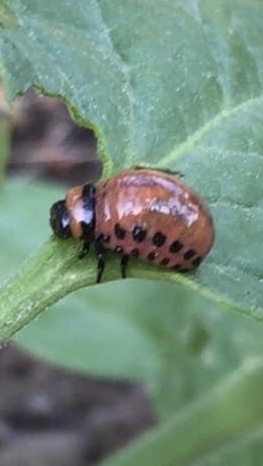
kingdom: Animalia
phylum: Arthropoda
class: Insecta
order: Coleoptera
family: Chrysomelidae
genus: Leptinotarsa
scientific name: Leptinotarsa decemlineata
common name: Colorado potato beetle
